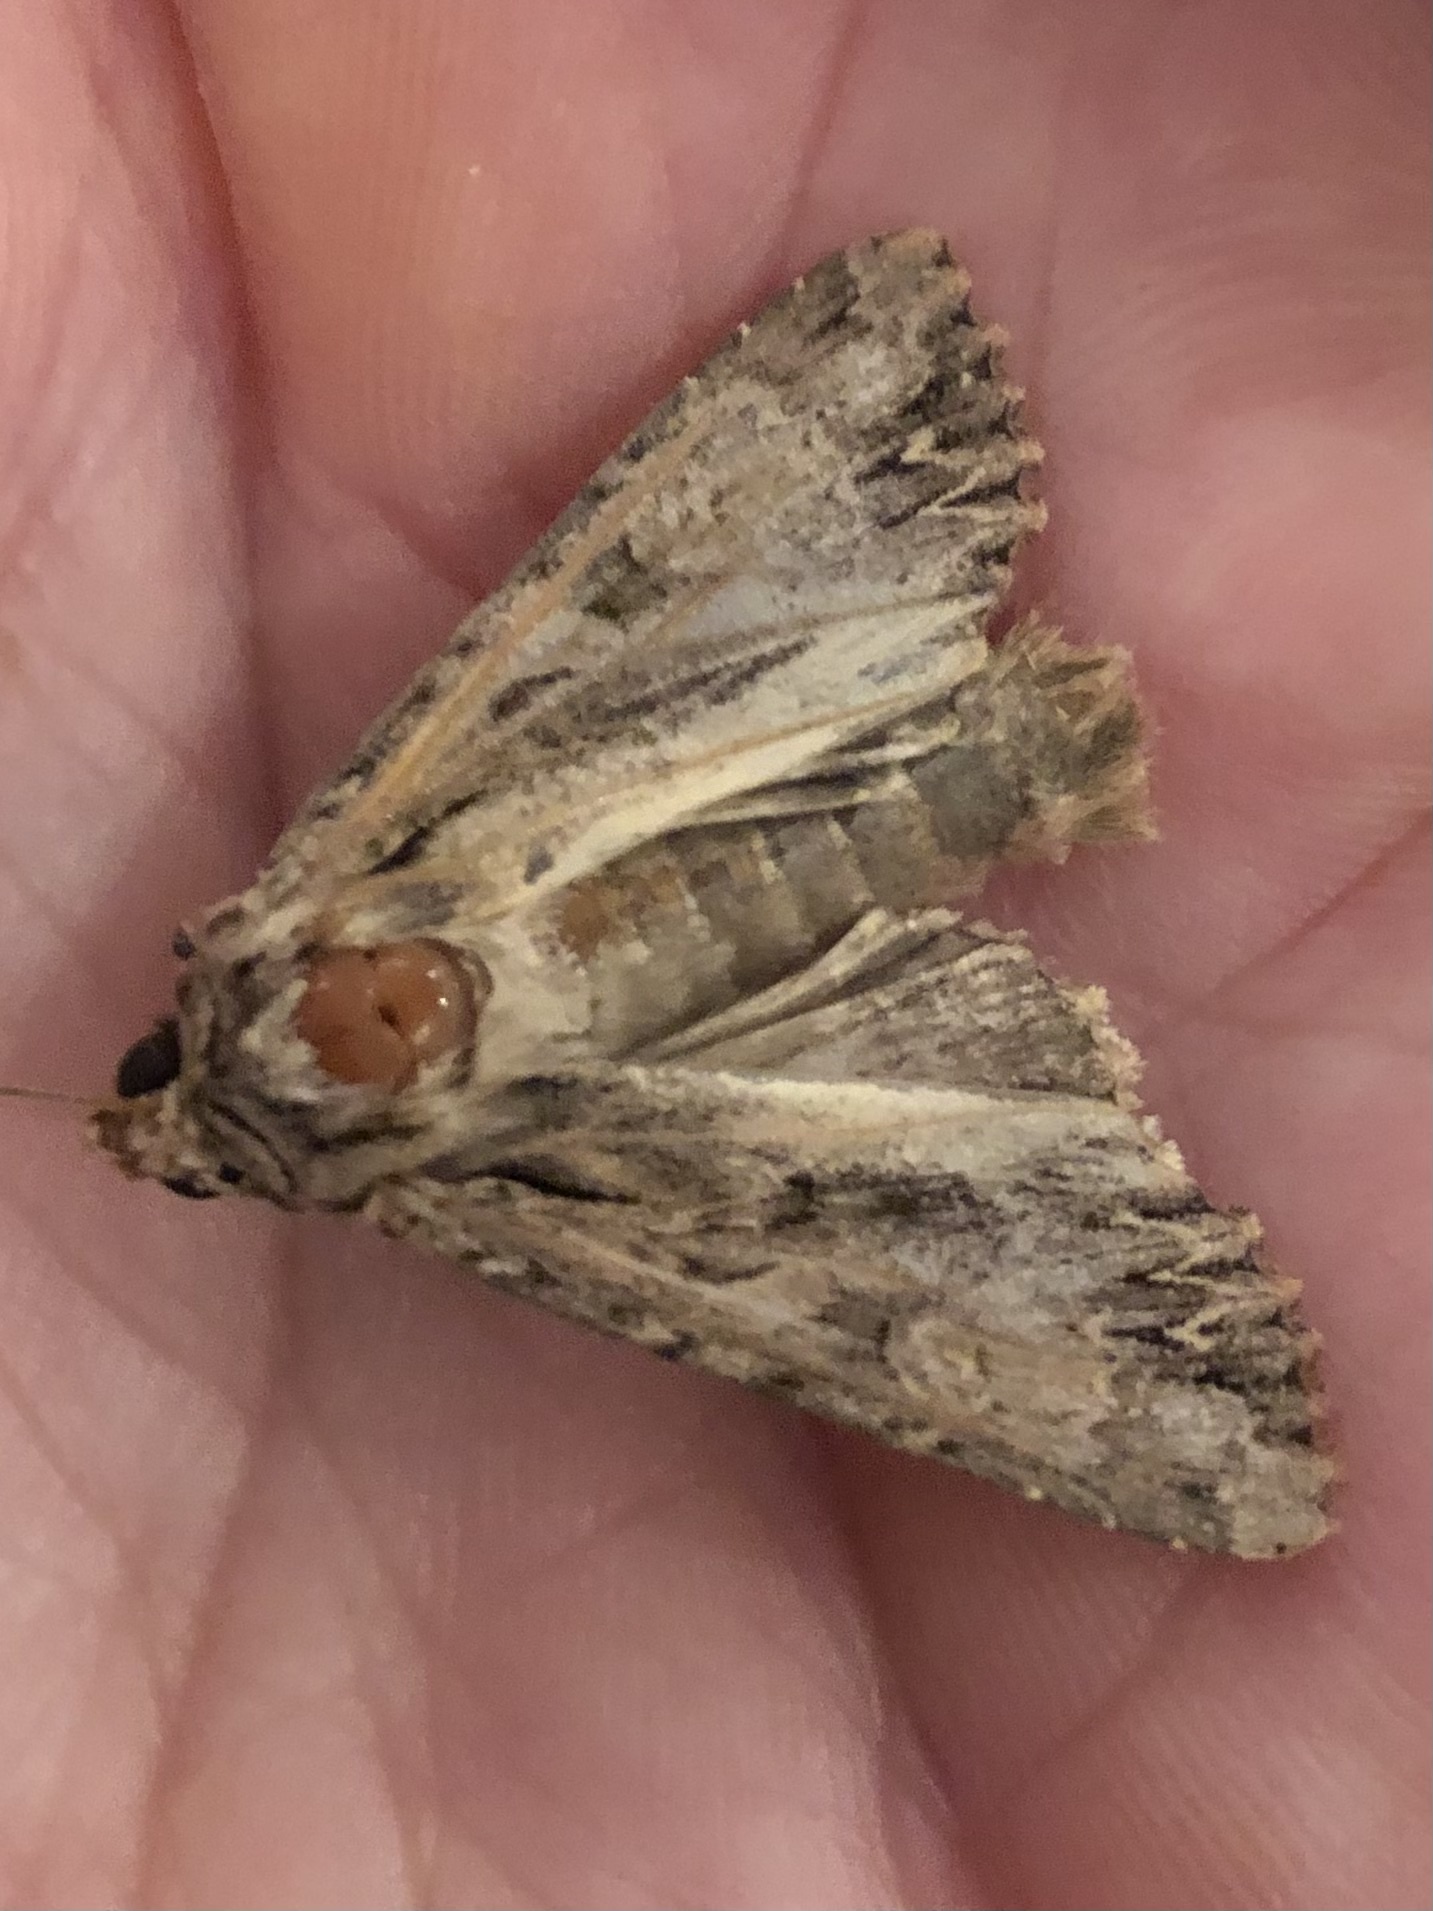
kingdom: Animalia
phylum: Arthropoda
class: Insecta
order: Lepidoptera
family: Noctuidae
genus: Apamea
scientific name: Apamea monoglypha
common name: Dark arches
